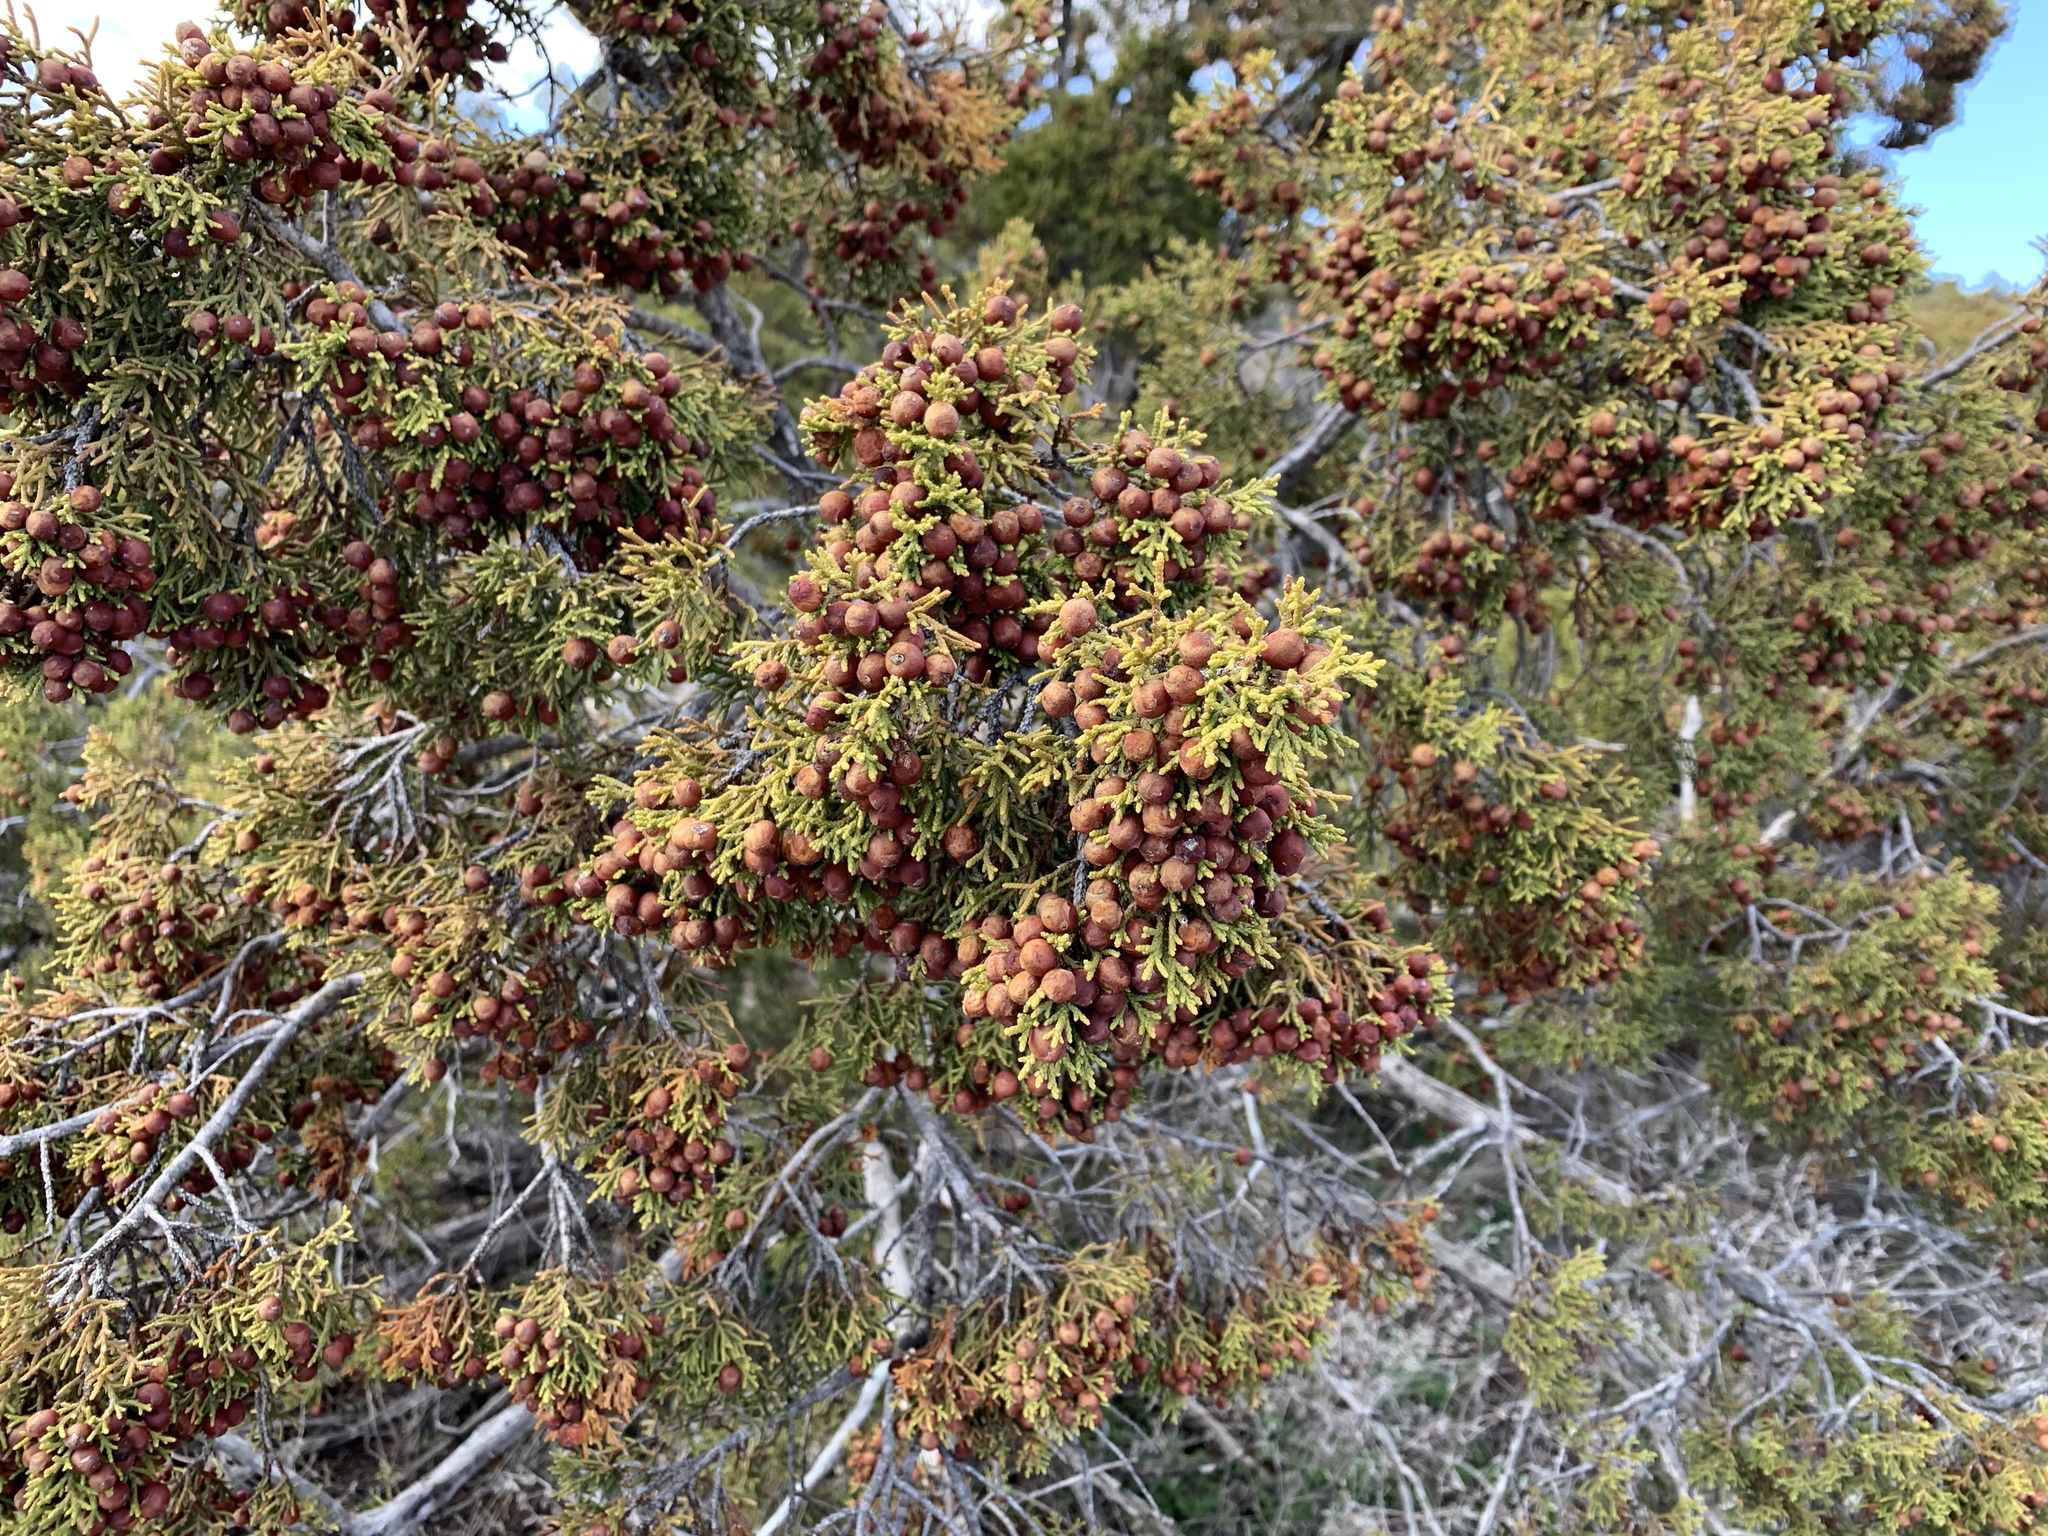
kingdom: Plantae
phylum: Tracheophyta
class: Pinopsida
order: Pinales
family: Cupressaceae
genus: Juniperus
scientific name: Juniperus pinchotii
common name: Pinchot juniper
